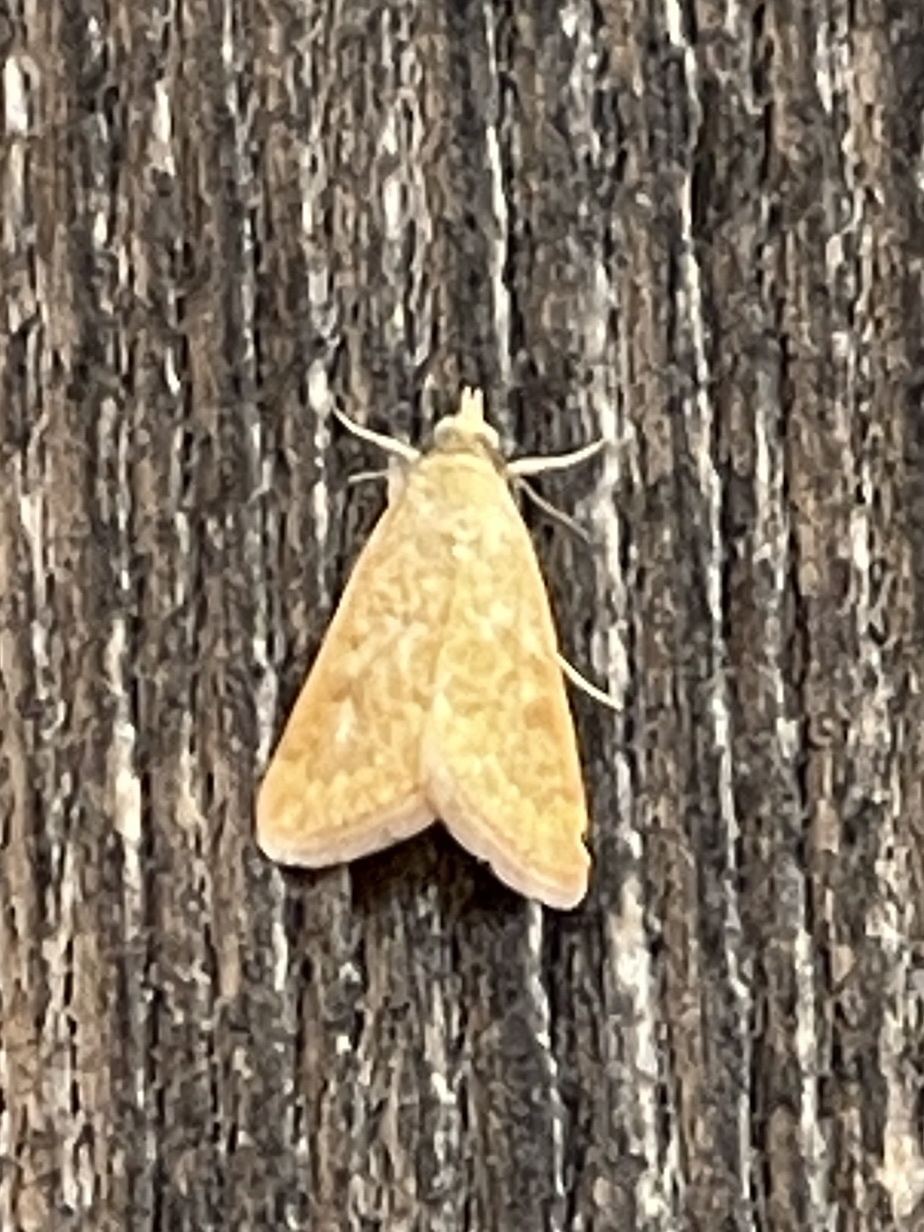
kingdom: Animalia
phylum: Arthropoda
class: Insecta
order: Lepidoptera
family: Crambidae
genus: Achyra
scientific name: Achyra rantalis
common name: Garden webworm
